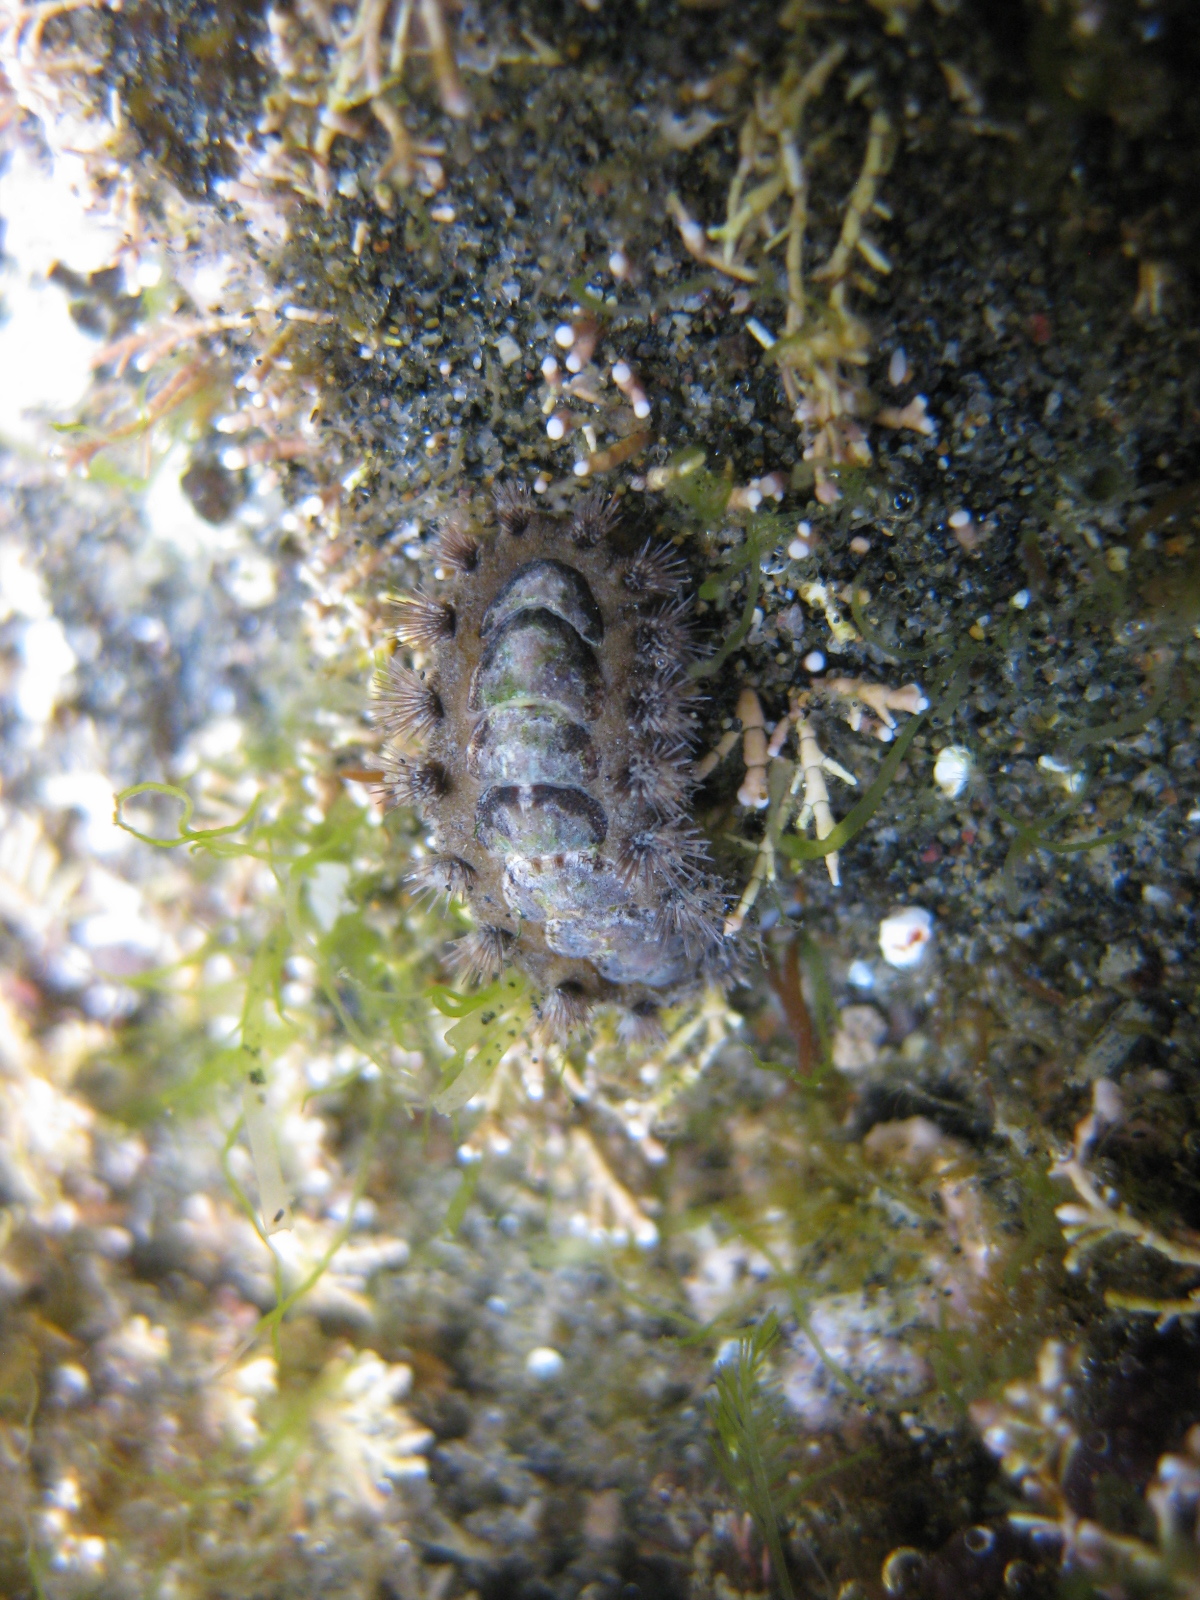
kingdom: Animalia
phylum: Mollusca
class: Polyplacophora
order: Chitonida
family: Acanthochitonidae
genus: Acanthochitona
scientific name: Acanthochitona zelandica
